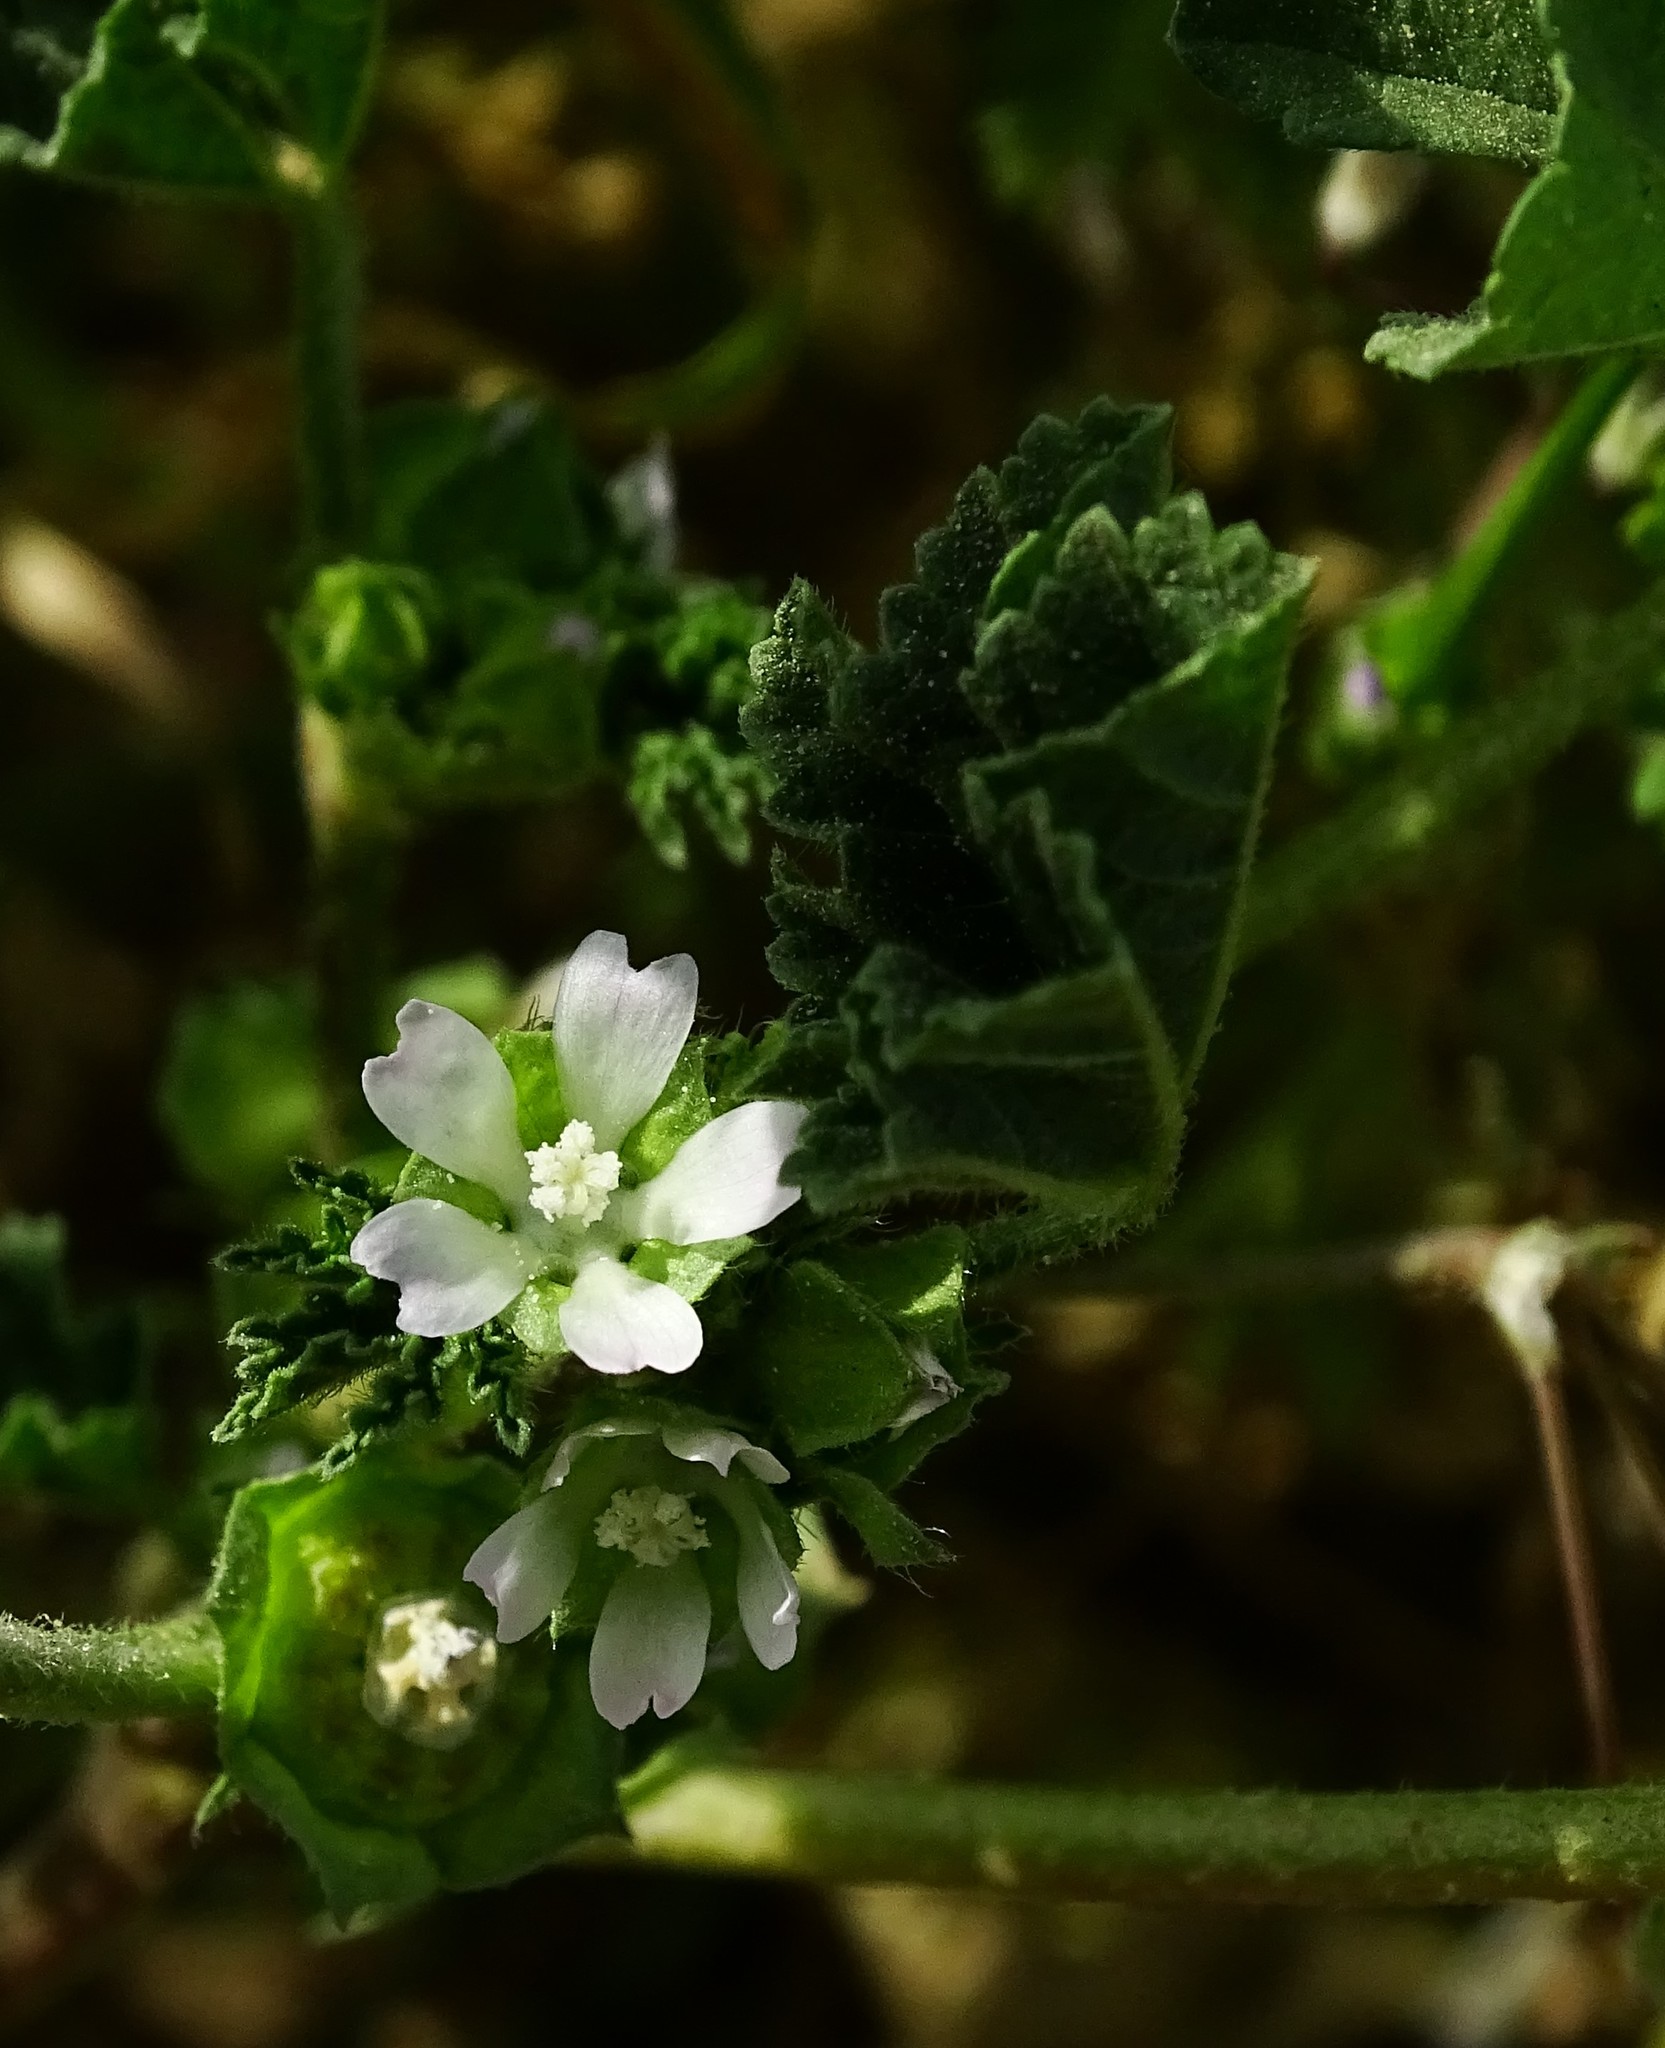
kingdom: Plantae
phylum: Tracheophyta
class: Magnoliopsida
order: Malvales
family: Malvaceae
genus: Malva
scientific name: Malva parviflora
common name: Least mallow
